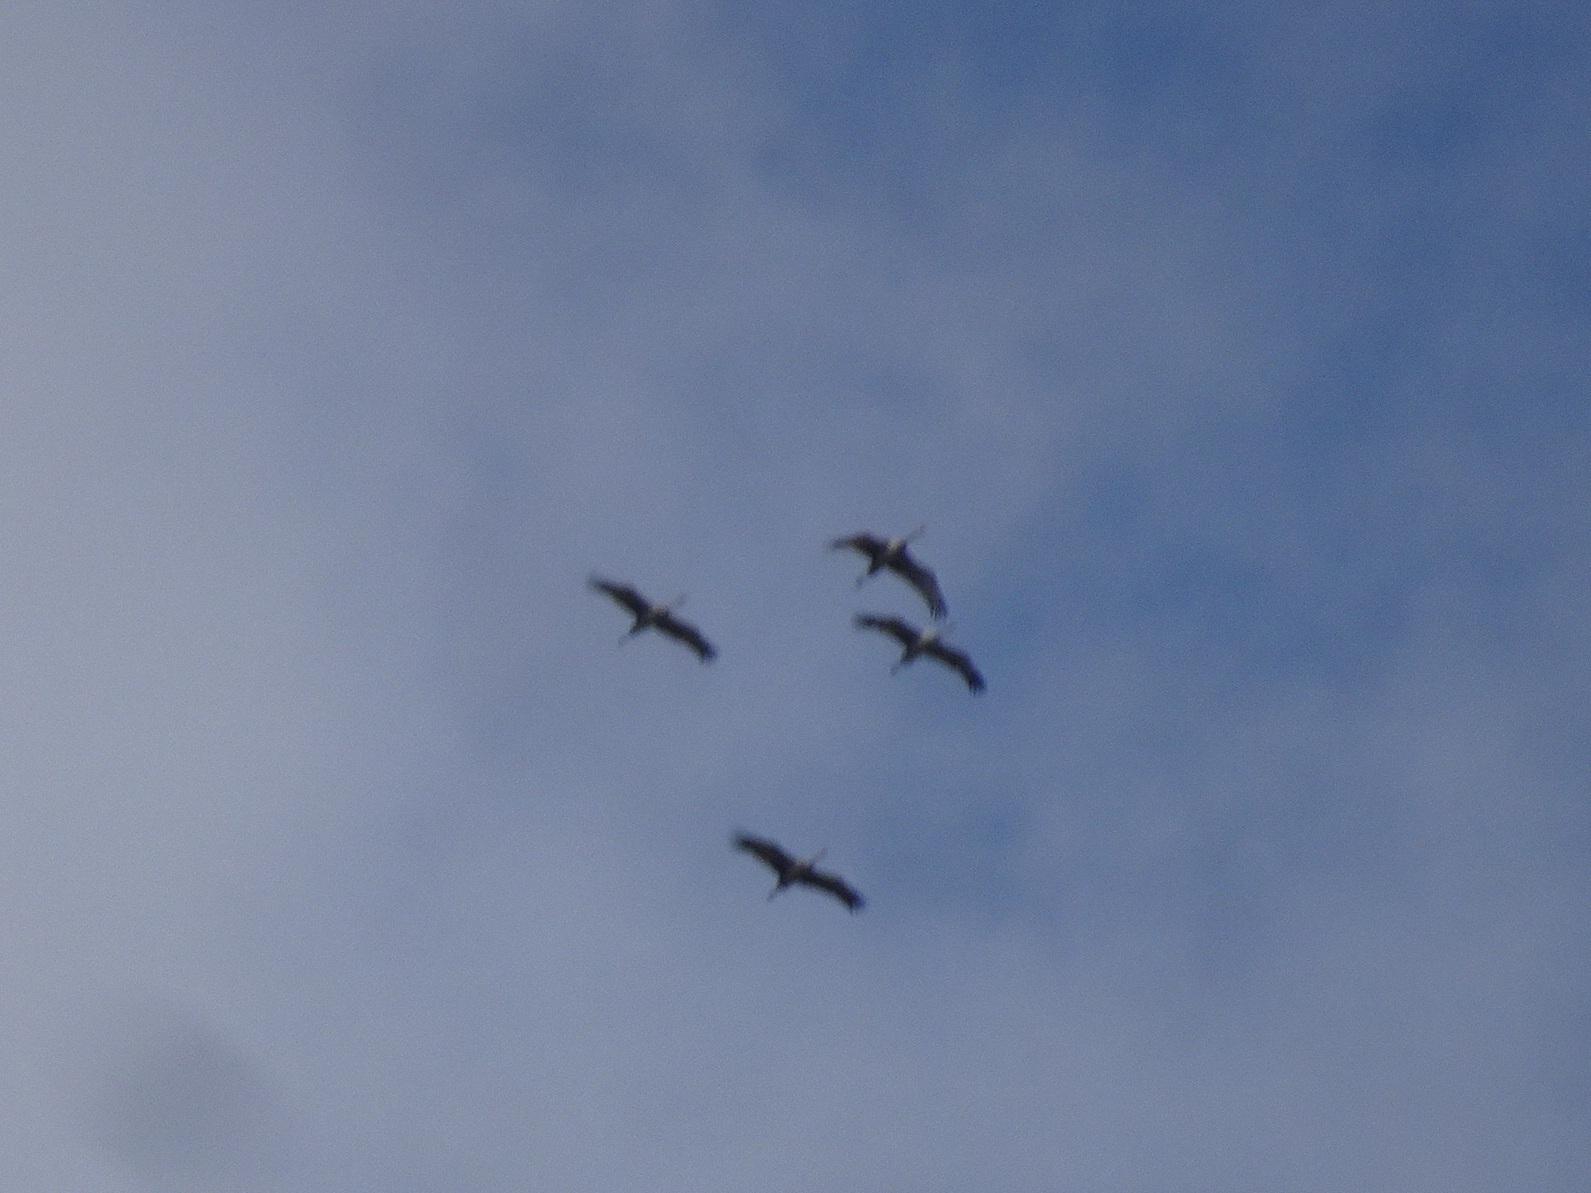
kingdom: Animalia
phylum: Chordata
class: Aves
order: Gruiformes
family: Gruidae
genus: Grus
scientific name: Grus canadensis
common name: Sandhill crane
